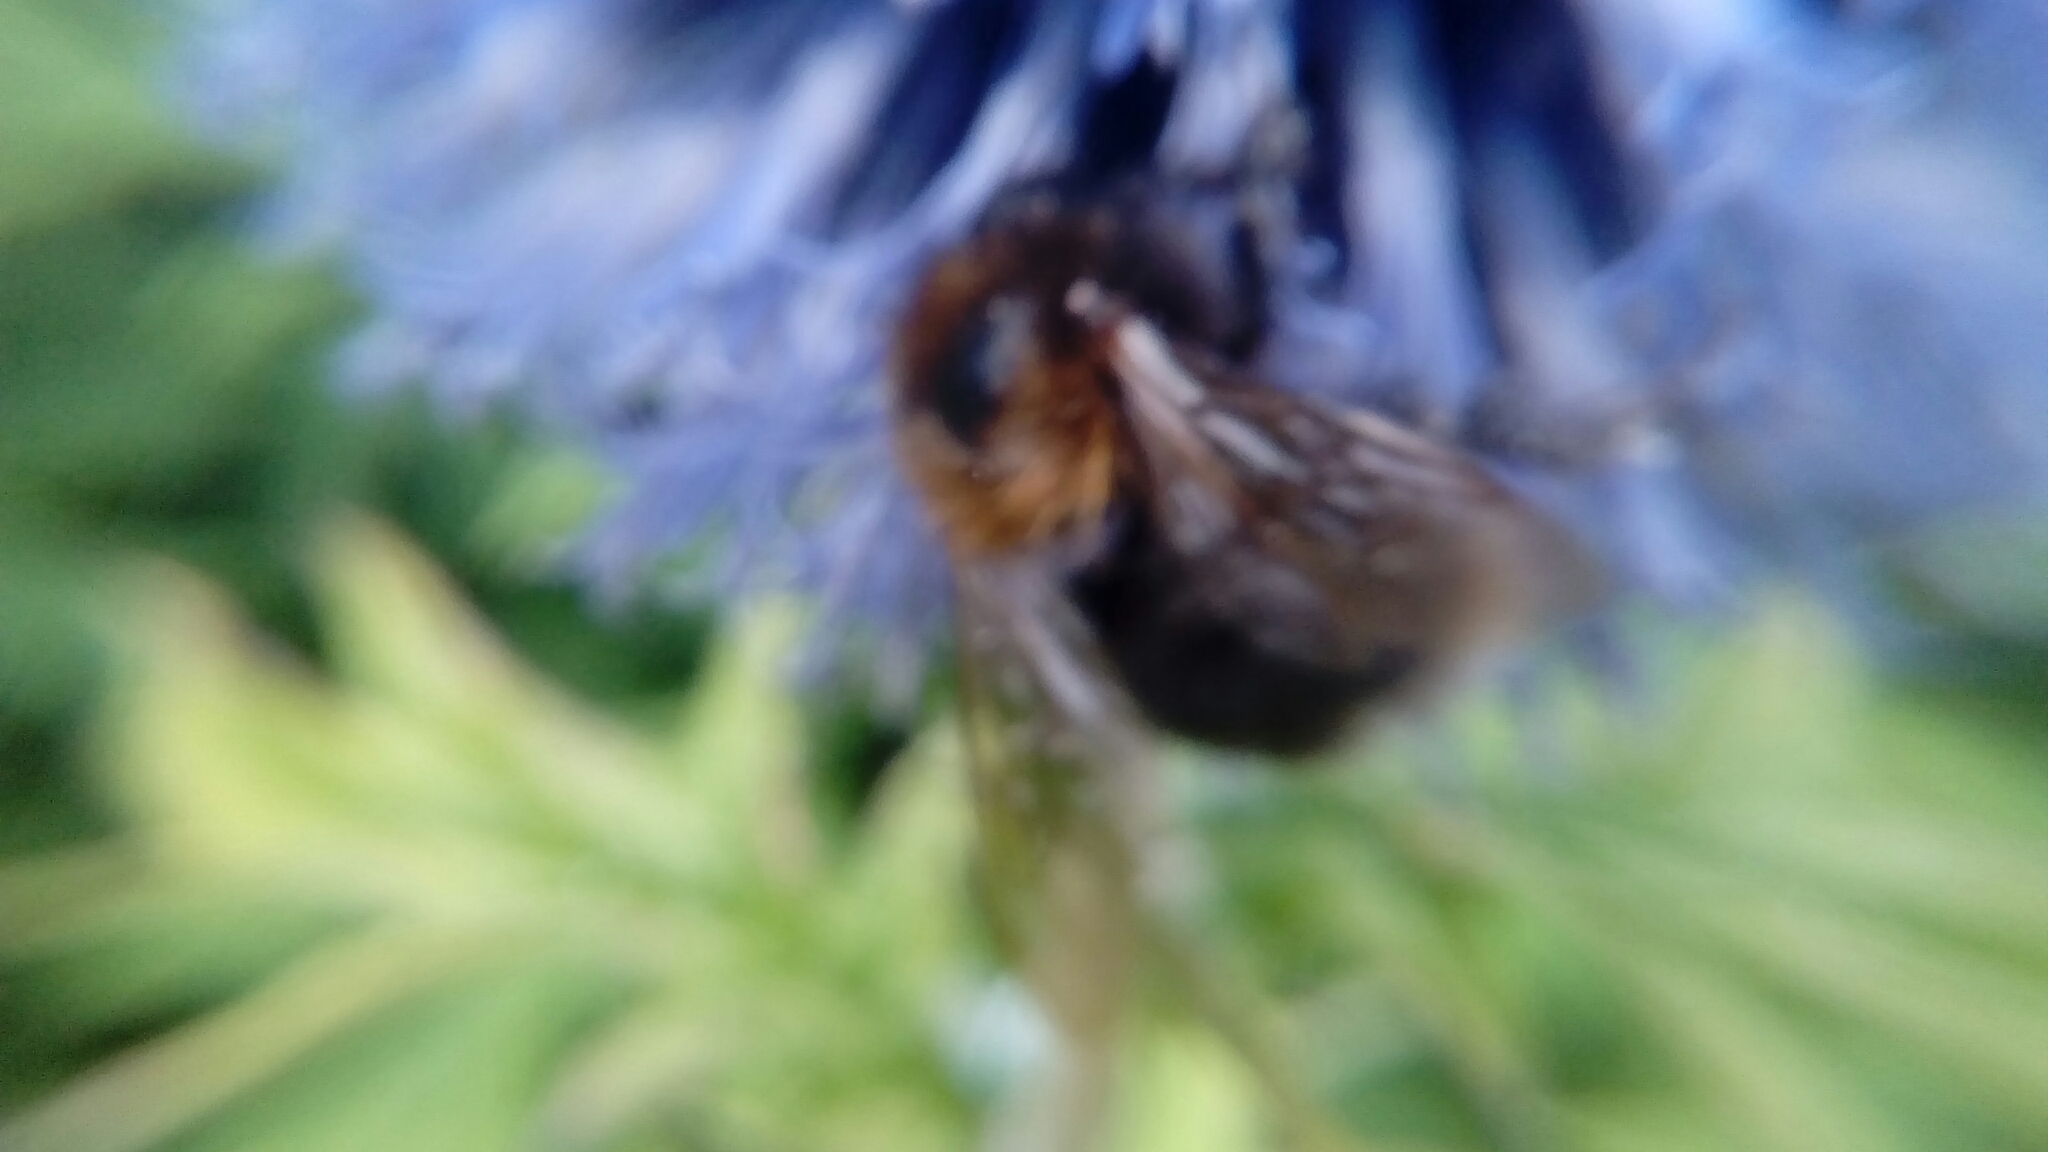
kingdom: Animalia
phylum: Arthropoda
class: Insecta
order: Hymenoptera
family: Apidae
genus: Bombus
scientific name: Bombus hypnorum
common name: New garden bumblebee
